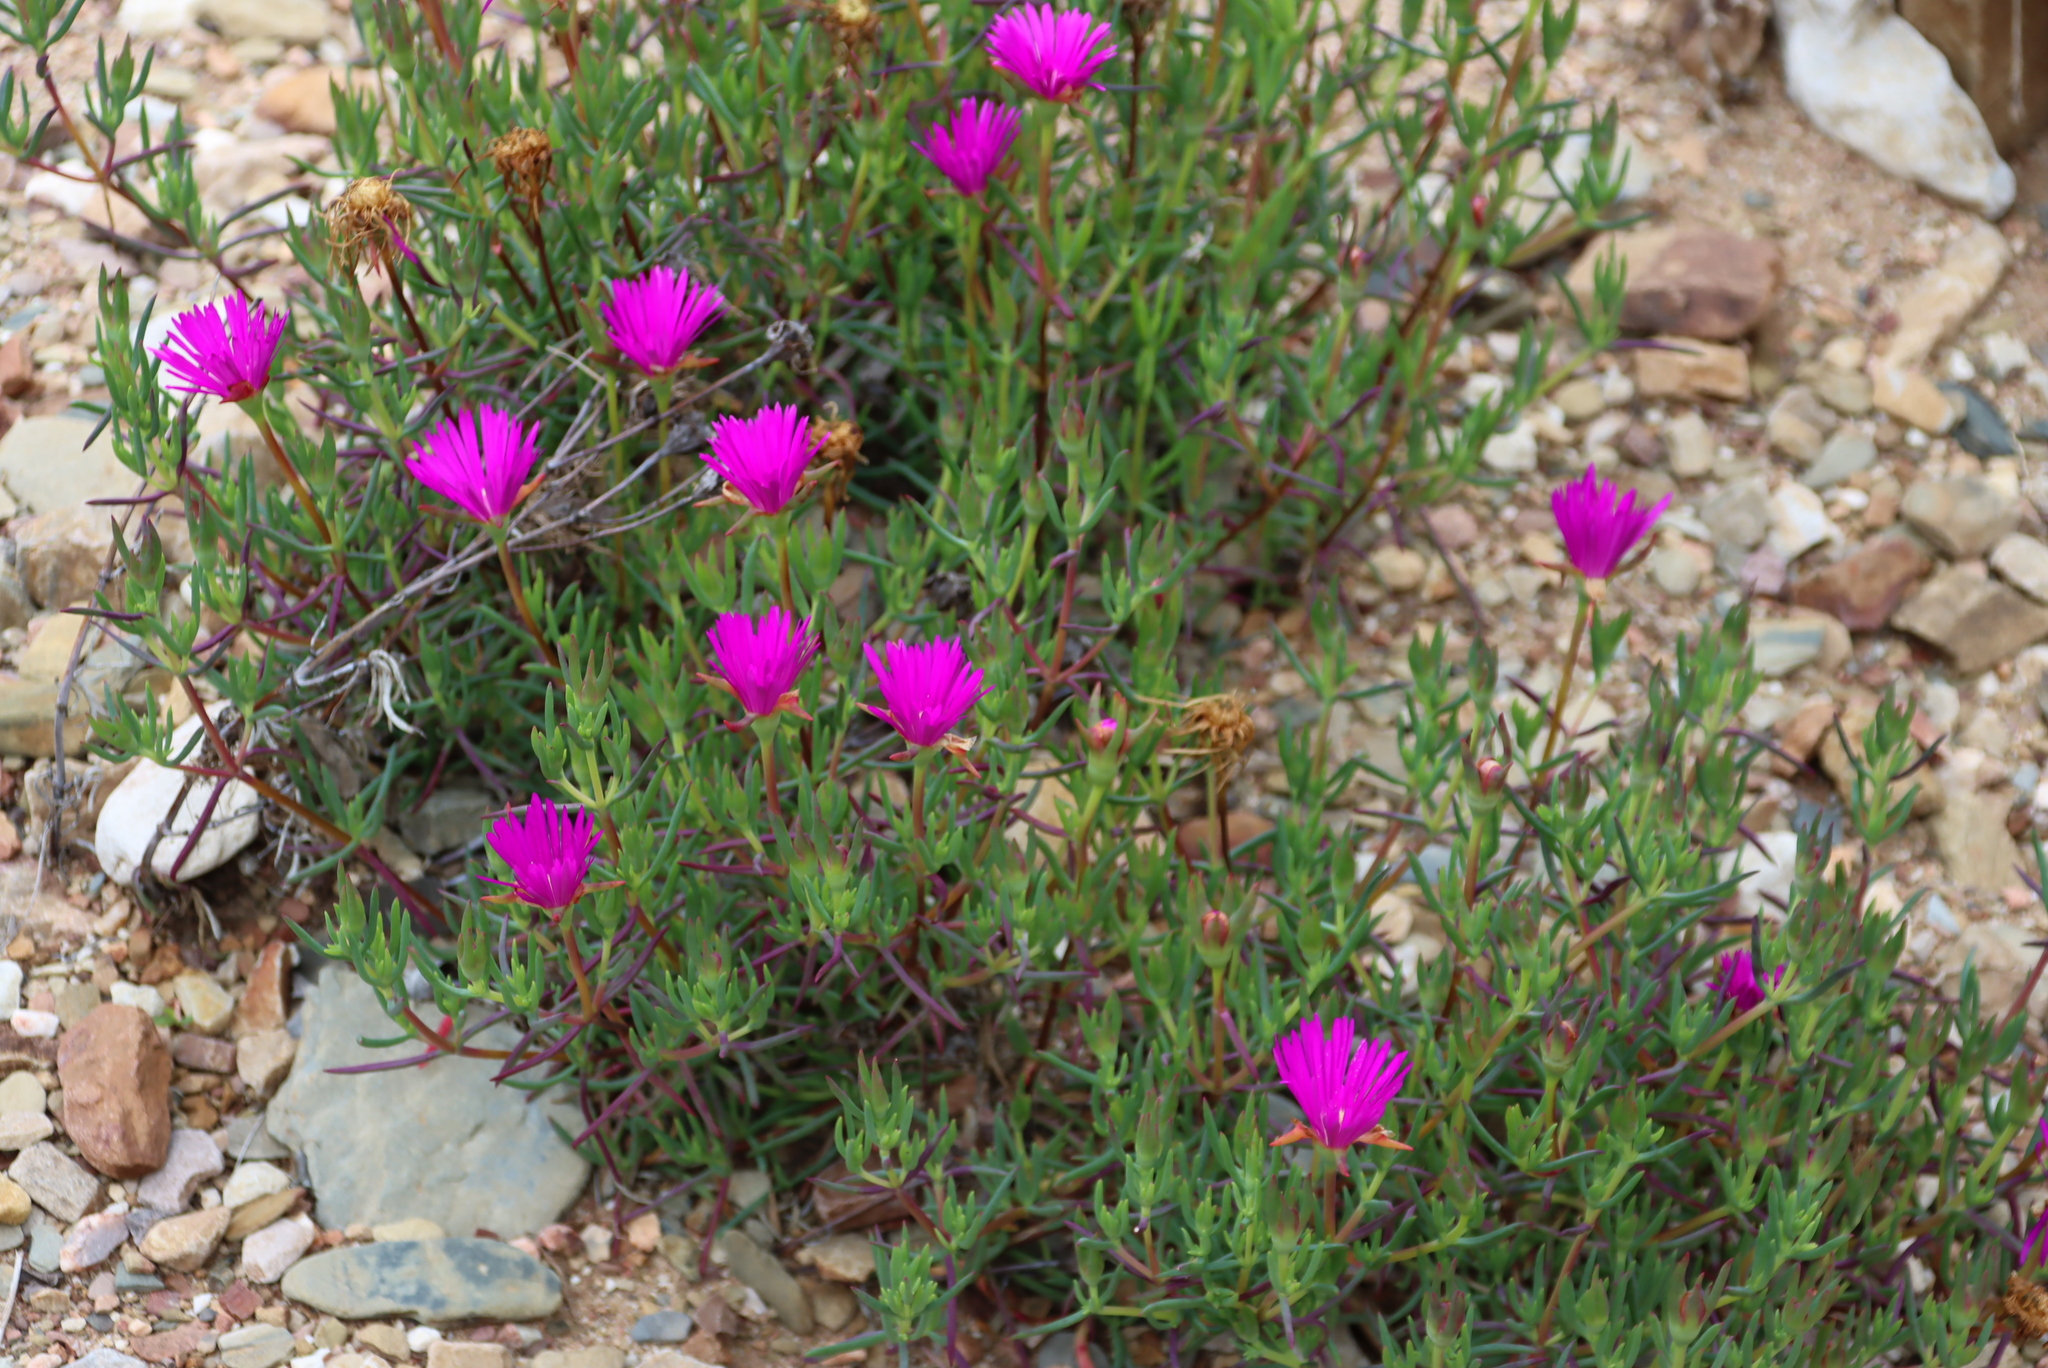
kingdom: Plantae
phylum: Tracheophyta
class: Magnoliopsida
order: Caryophyllales
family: Aizoaceae
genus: Lampranthus
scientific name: Lampranthus coralliflorus
